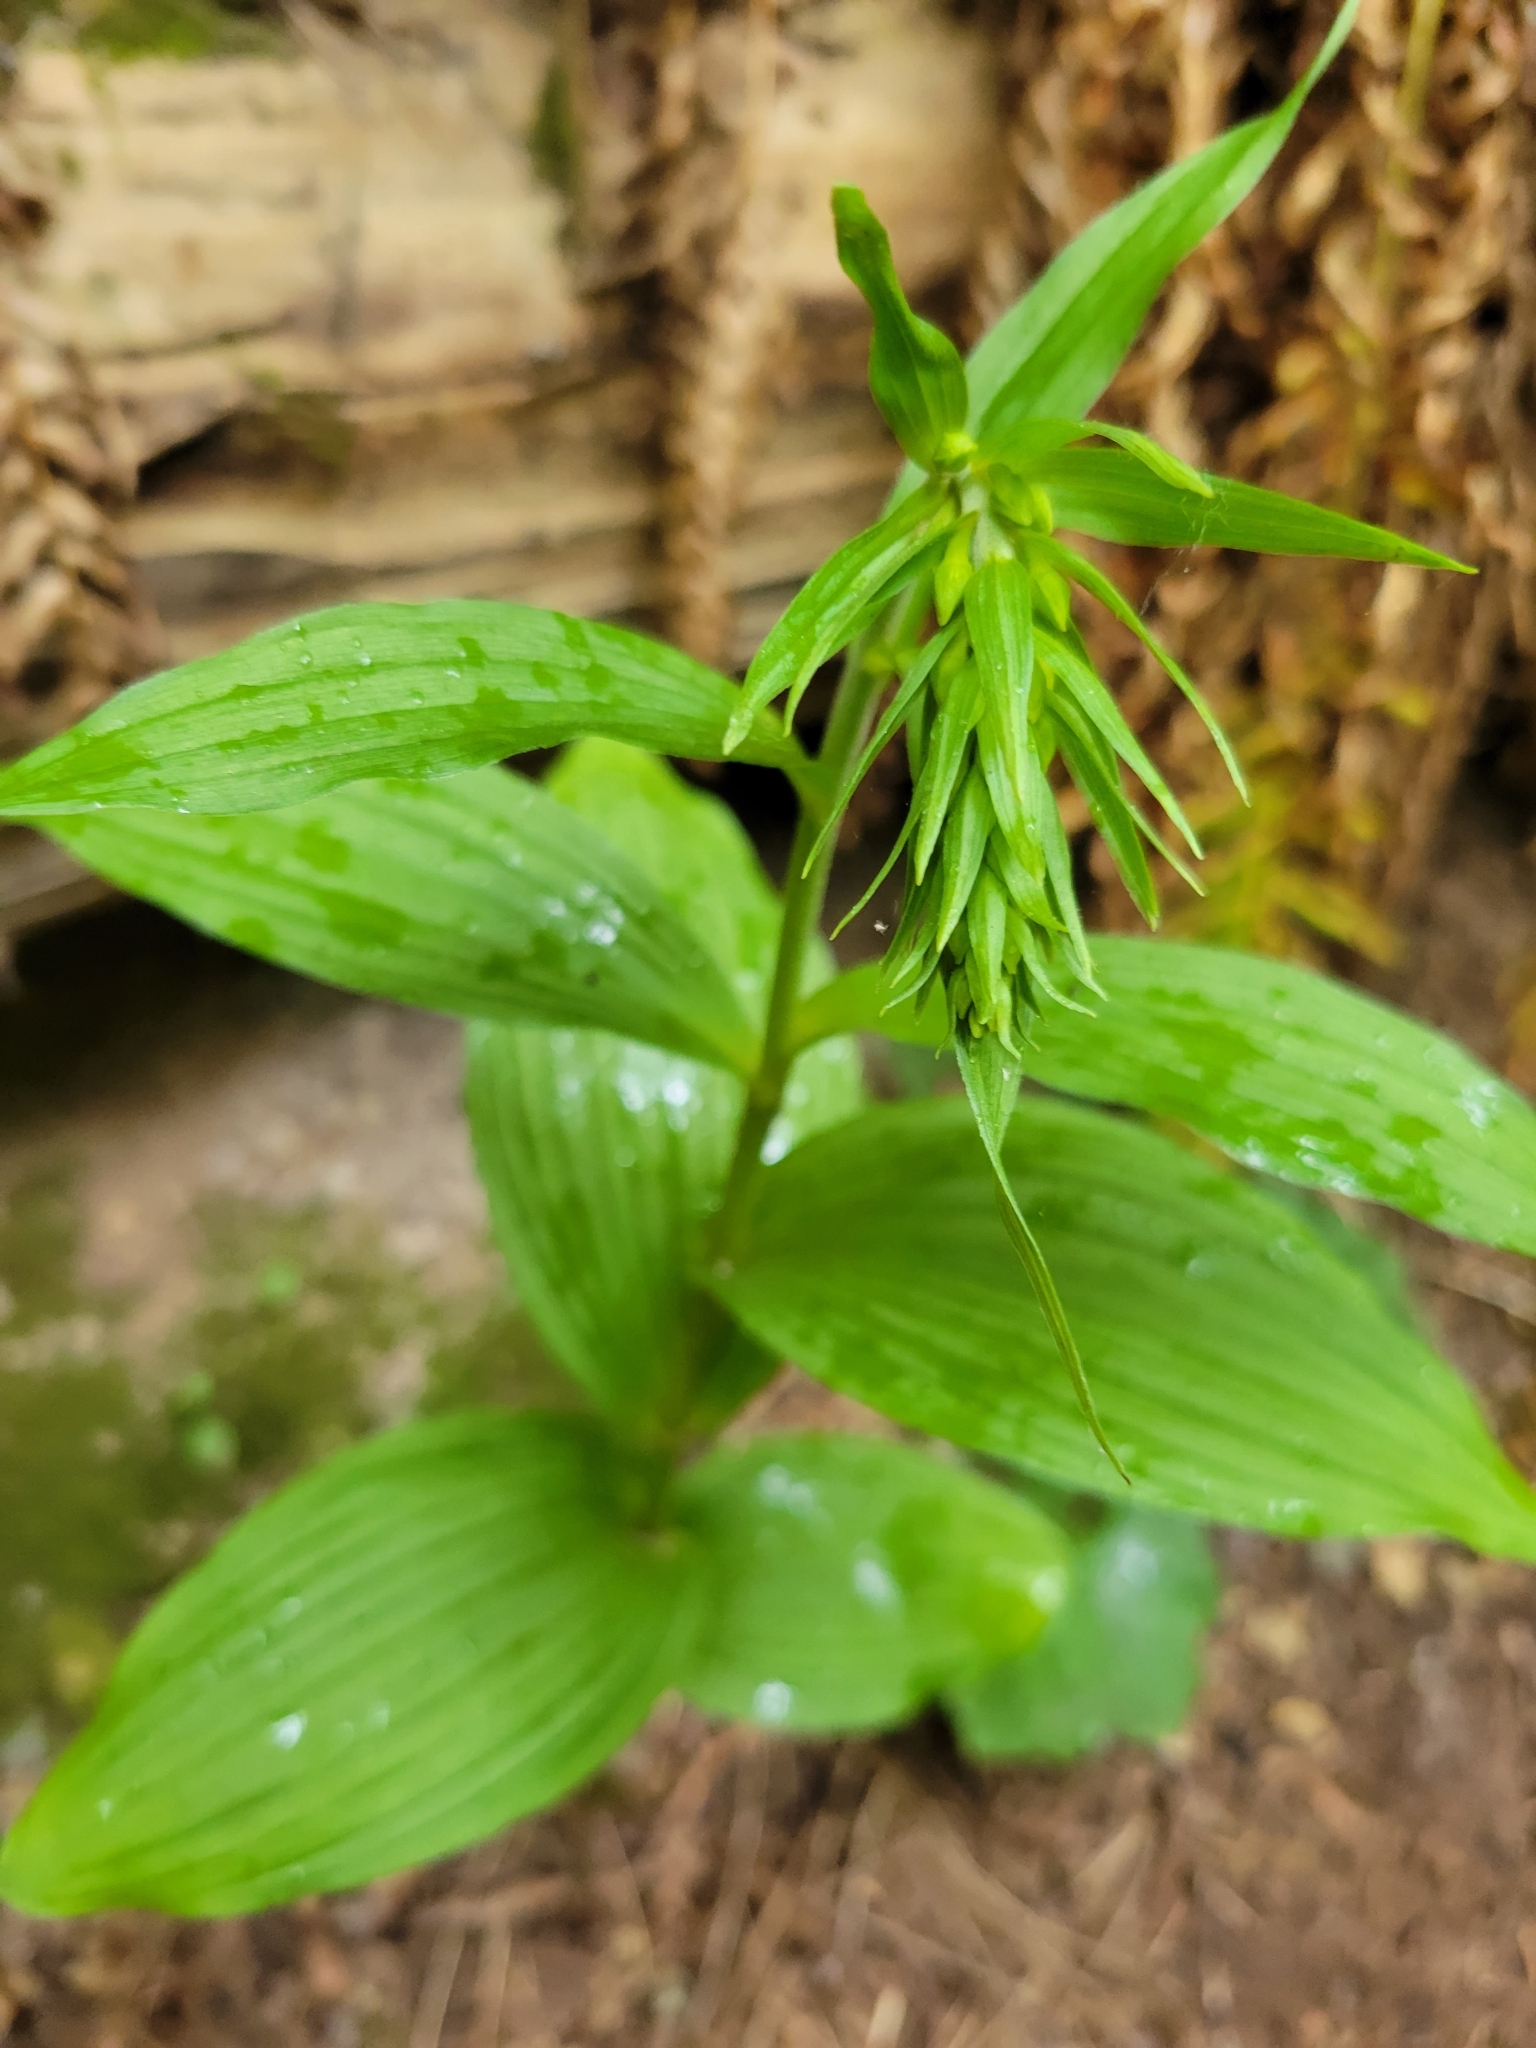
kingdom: Plantae
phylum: Tracheophyta
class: Liliopsida
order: Asparagales
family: Orchidaceae
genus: Epipactis
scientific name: Epipactis helleborine
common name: Broad-leaved helleborine
